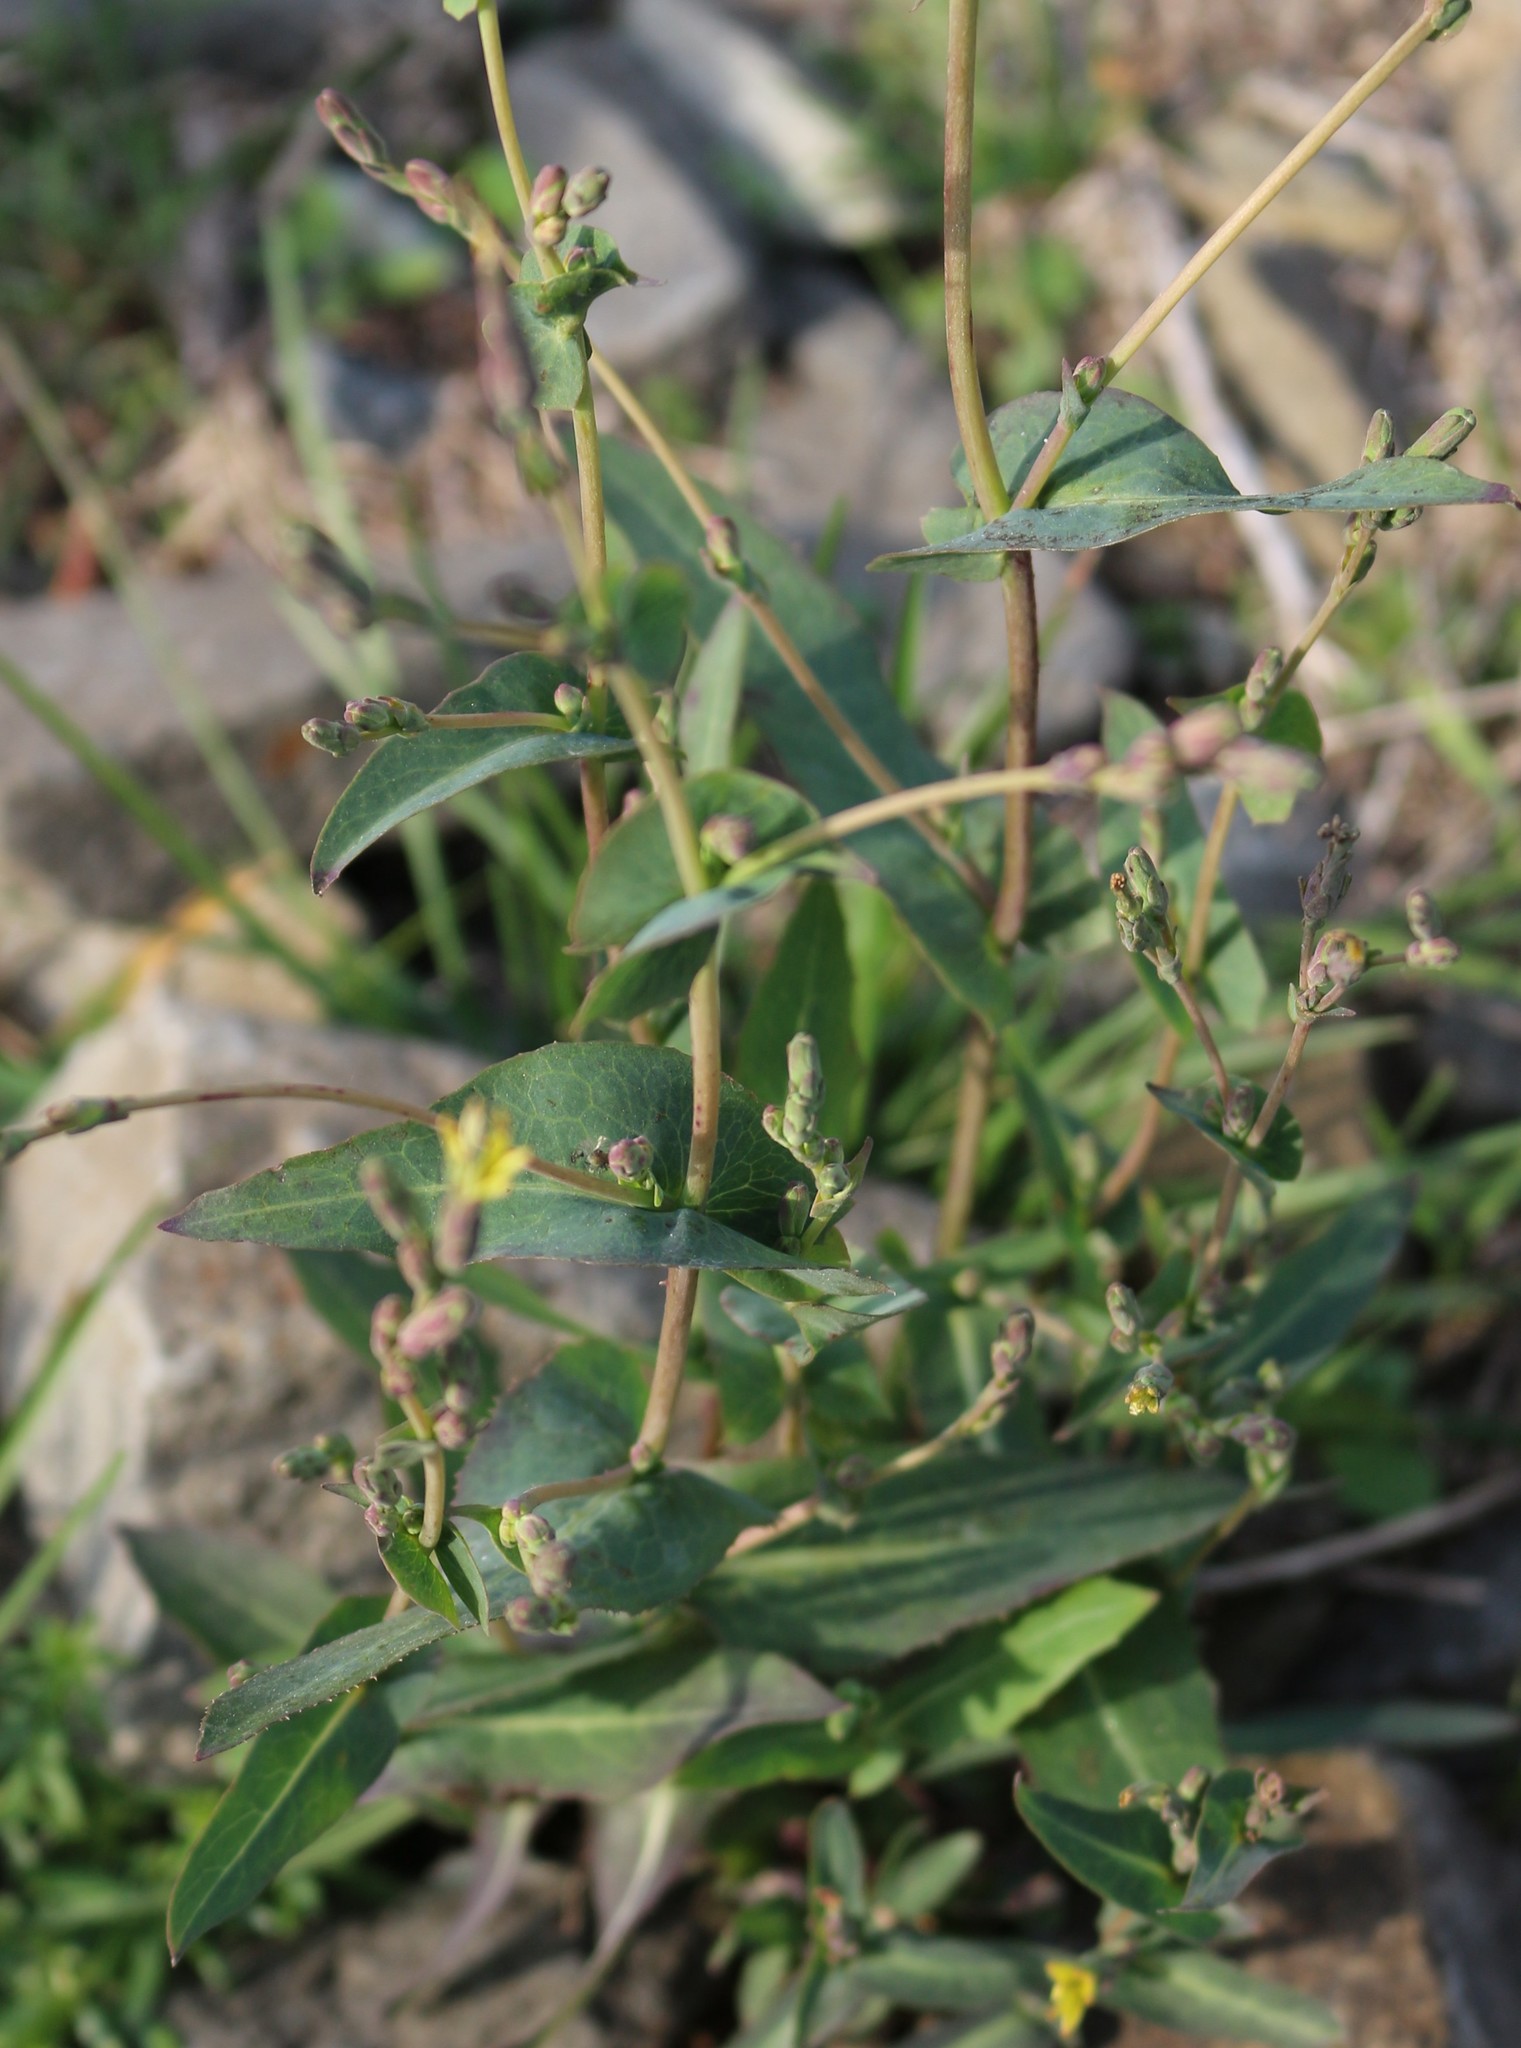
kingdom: Plantae
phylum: Tracheophyta
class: Magnoliopsida
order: Asterales
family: Asteraceae
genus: Lactuca
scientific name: Lactuca serriola
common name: Prickly lettuce
